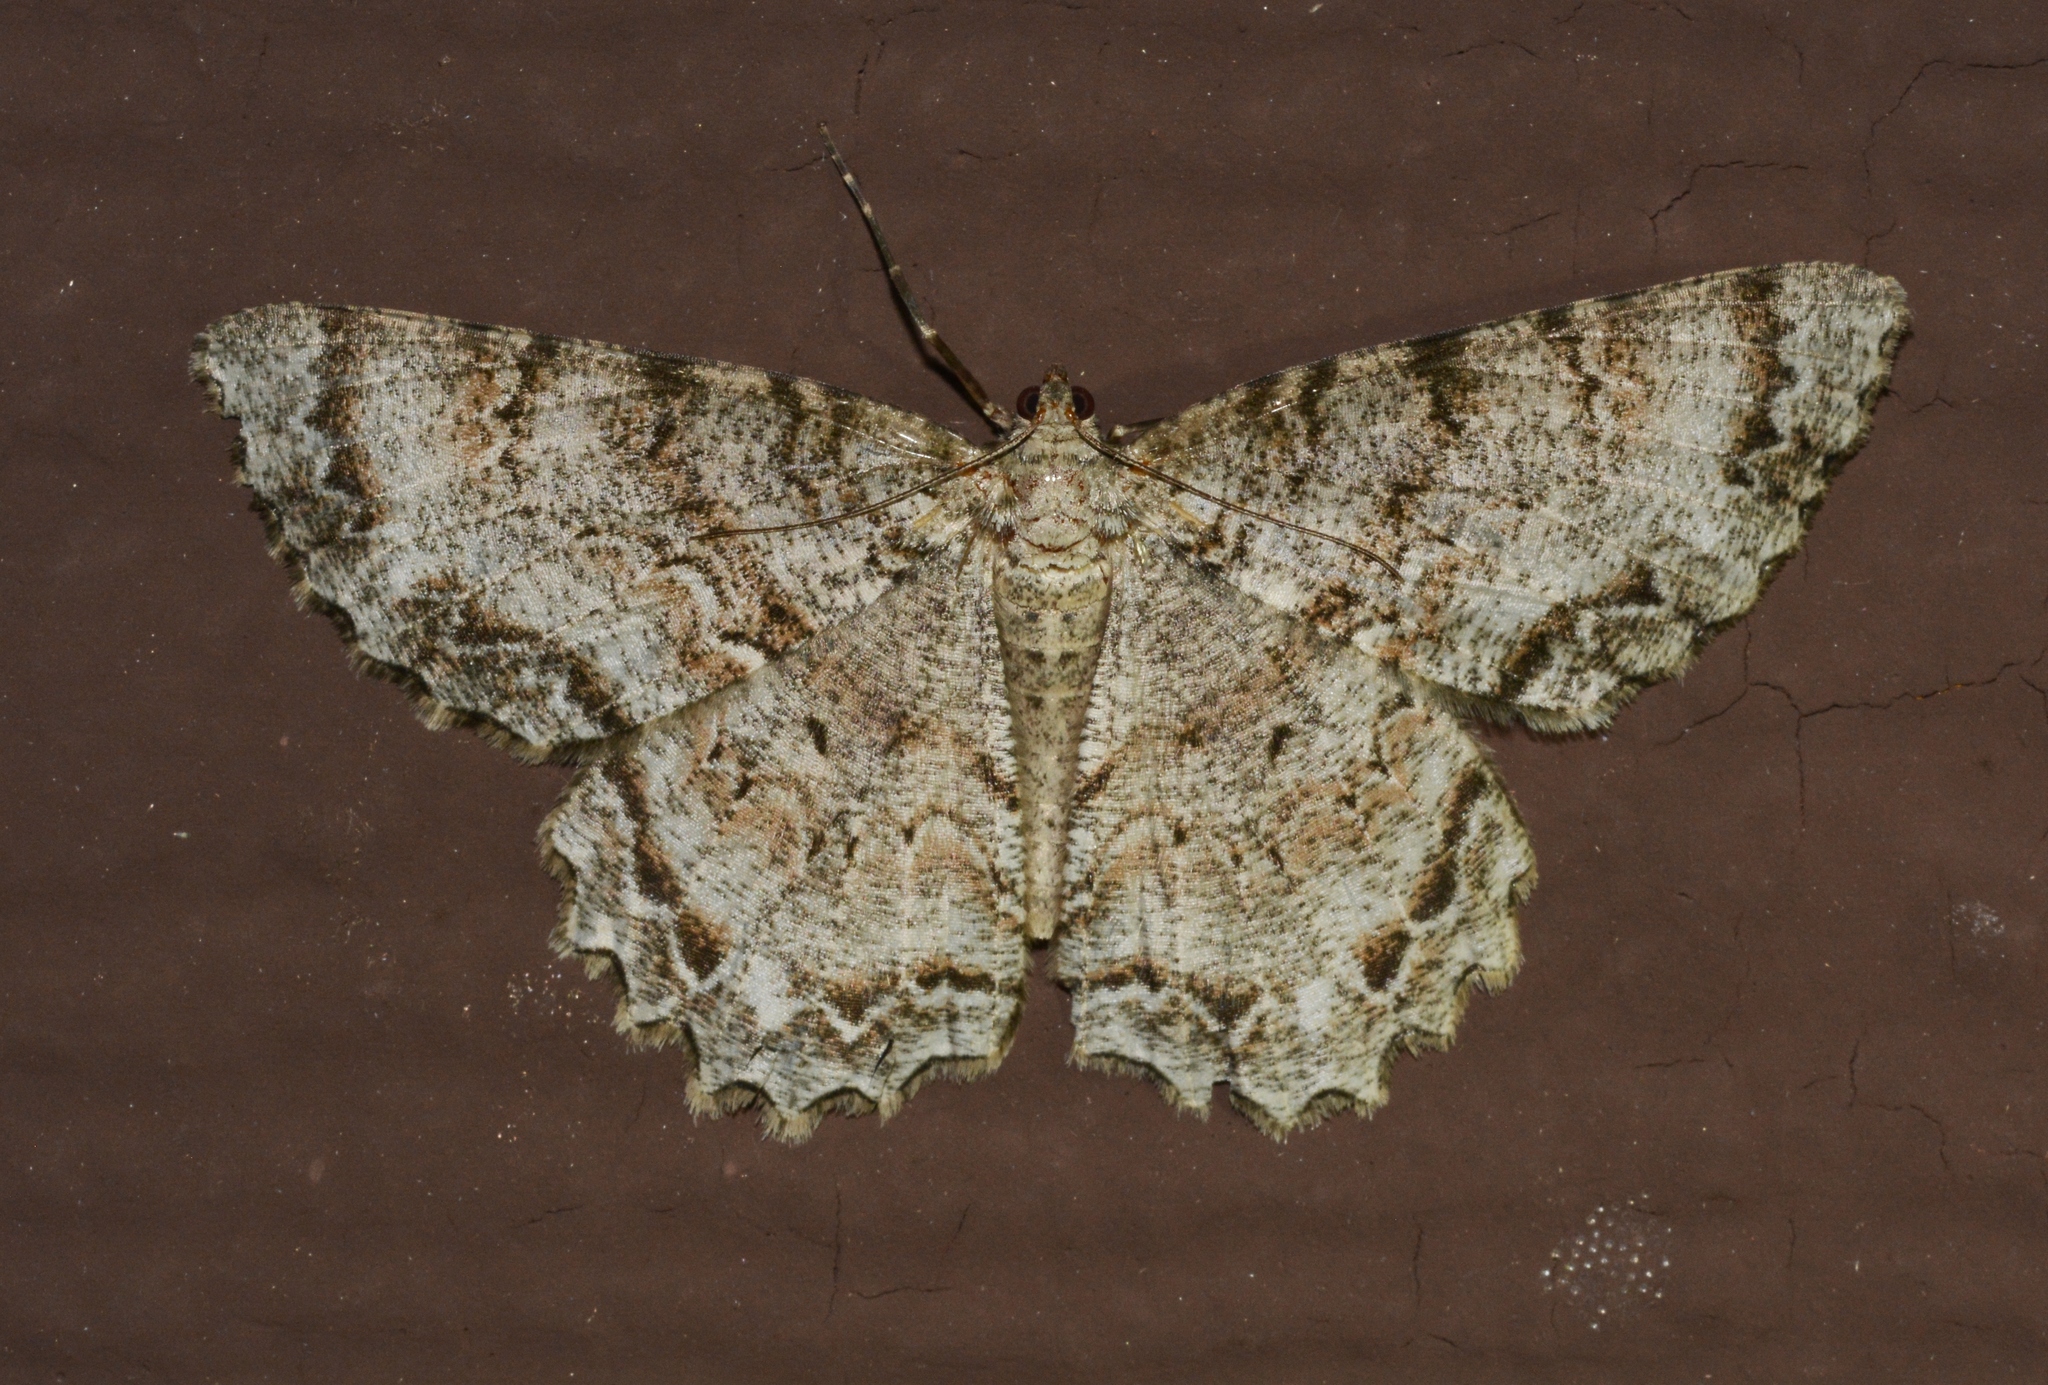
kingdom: Animalia
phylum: Arthropoda
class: Insecta
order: Lepidoptera
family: Geometridae
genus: Epimecis
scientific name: Epimecis hortaria
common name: Tulip-tree beauty
